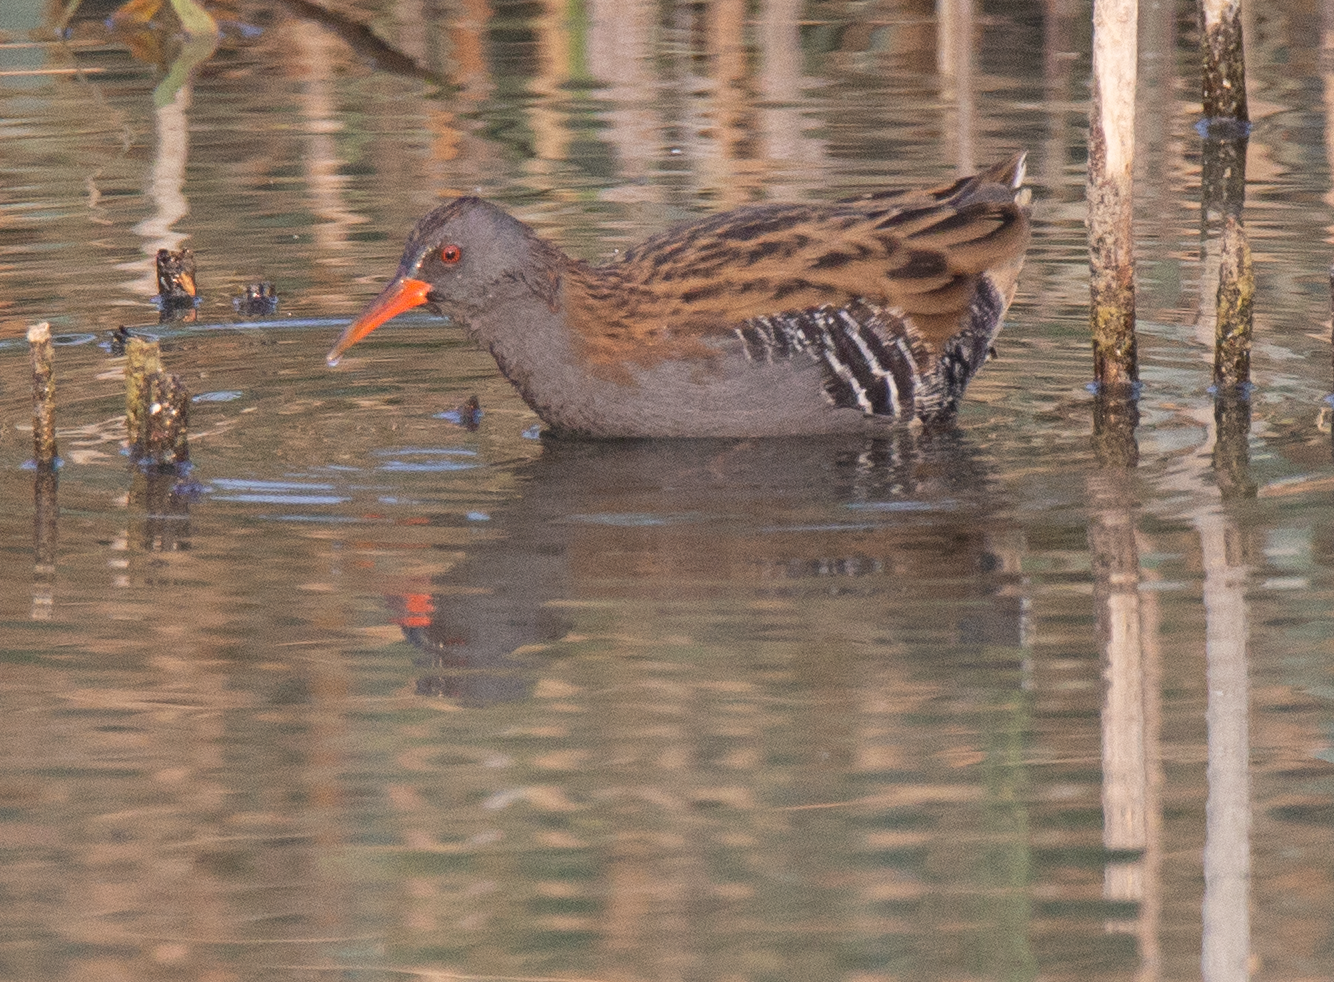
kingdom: Animalia
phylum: Chordata
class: Aves
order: Gruiformes
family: Rallidae
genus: Rallus
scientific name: Rallus aquaticus
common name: Water rail
